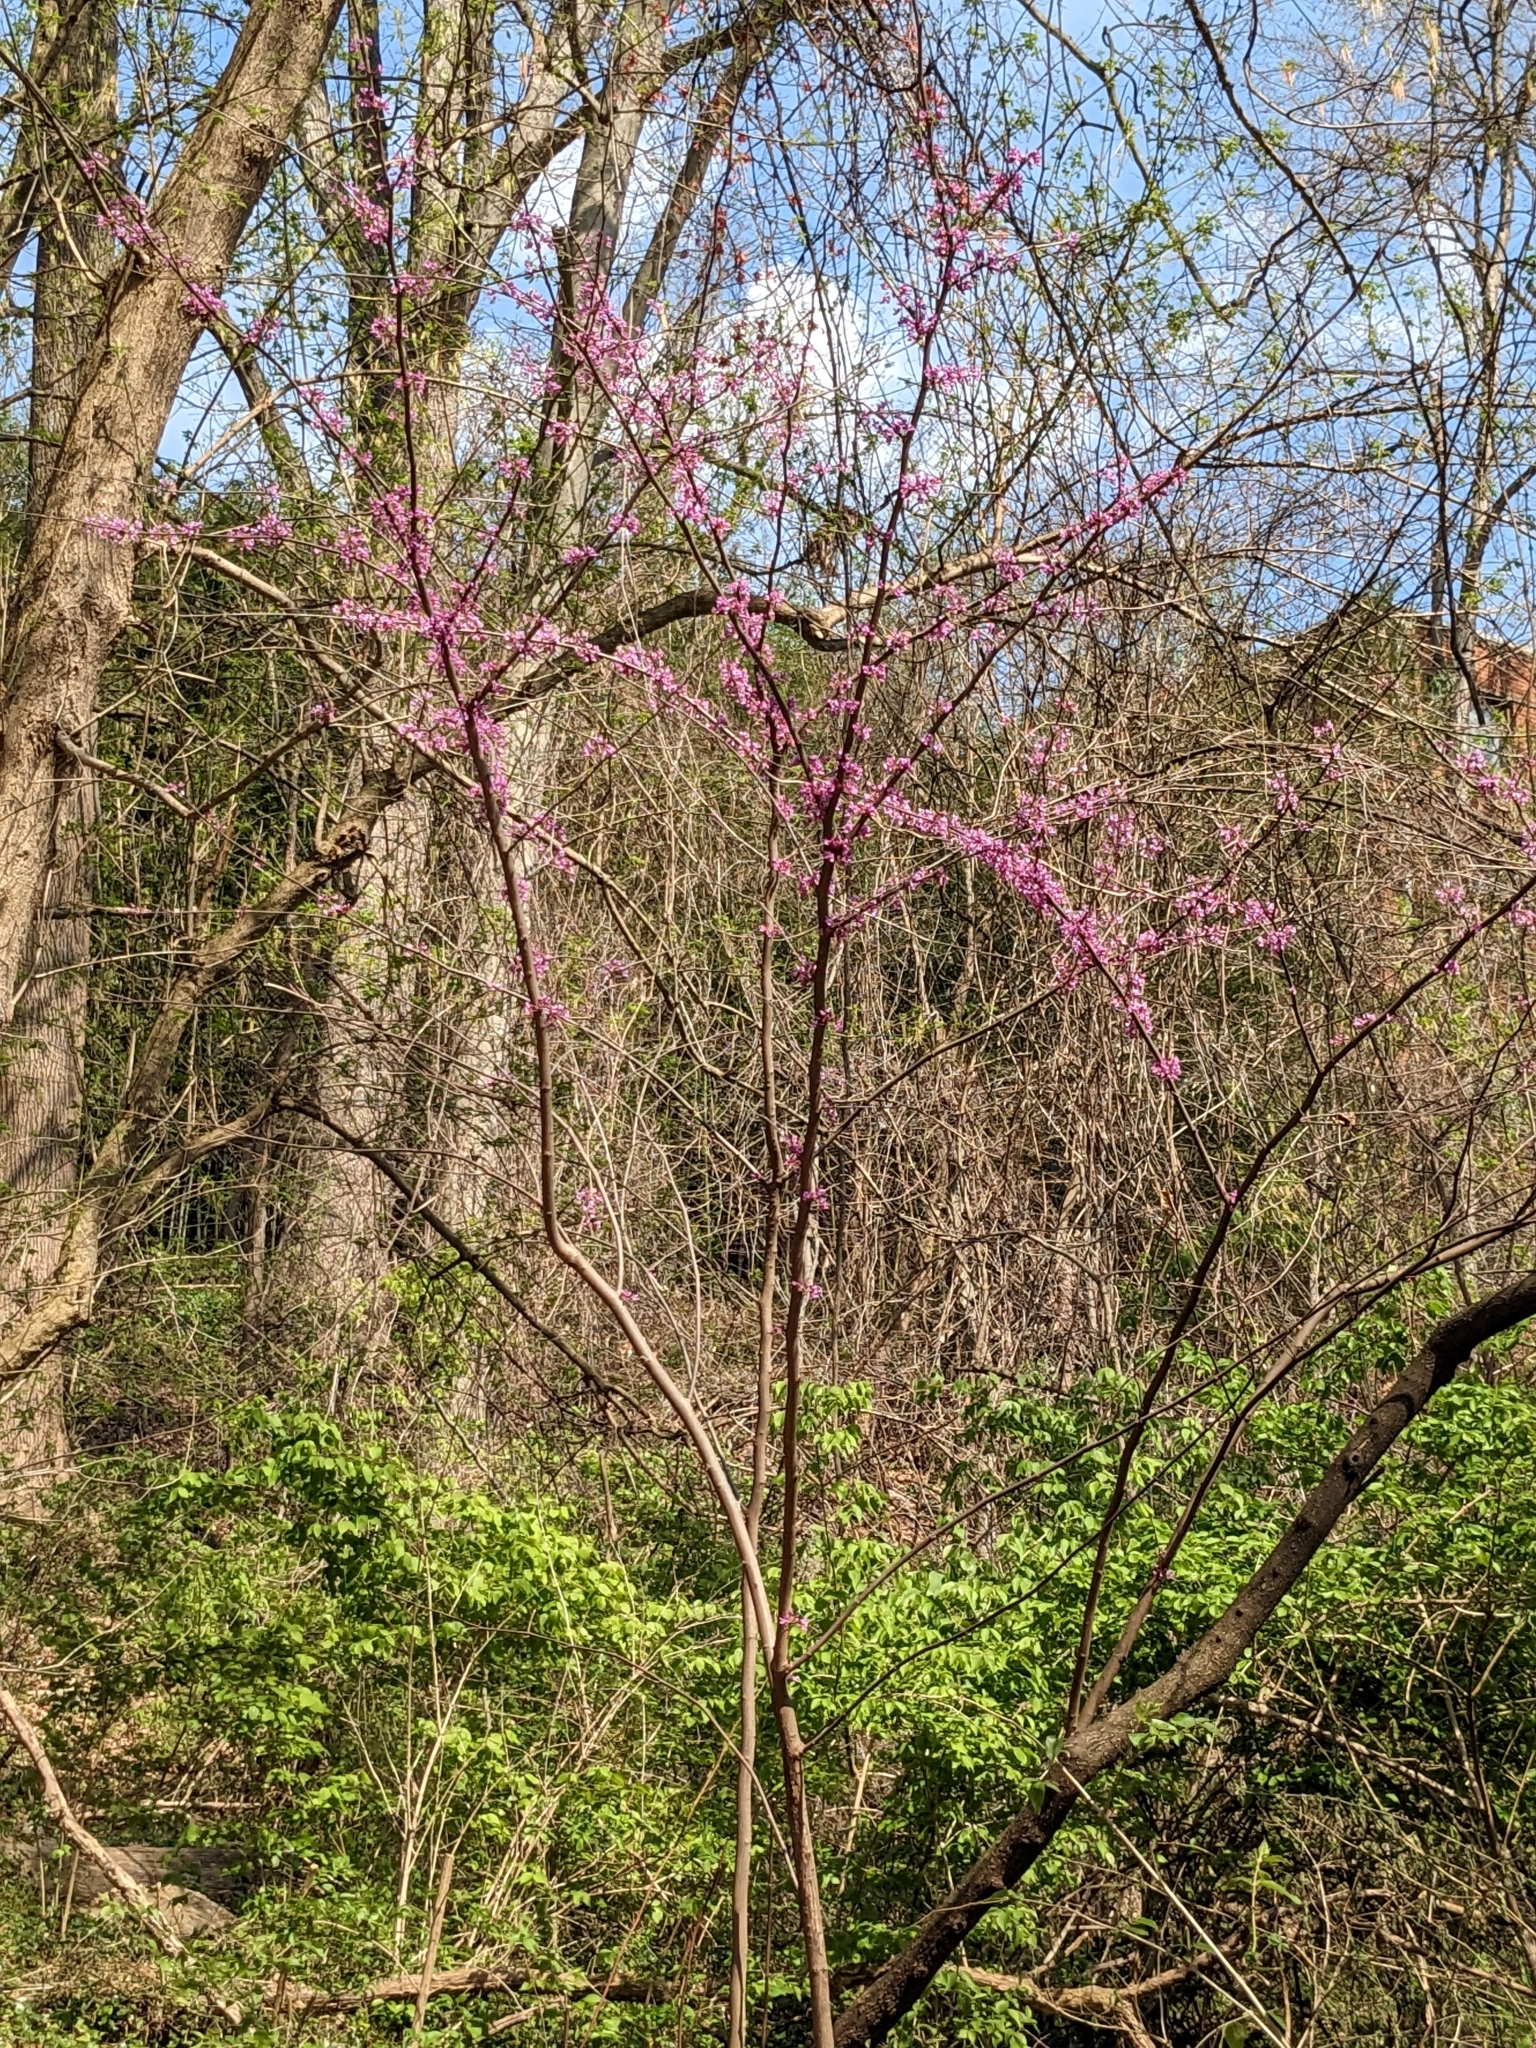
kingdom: Plantae
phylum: Tracheophyta
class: Magnoliopsida
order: Fabales
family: Fabaceae
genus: Cercis
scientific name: Cercis canadensis
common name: Eastern redbud
